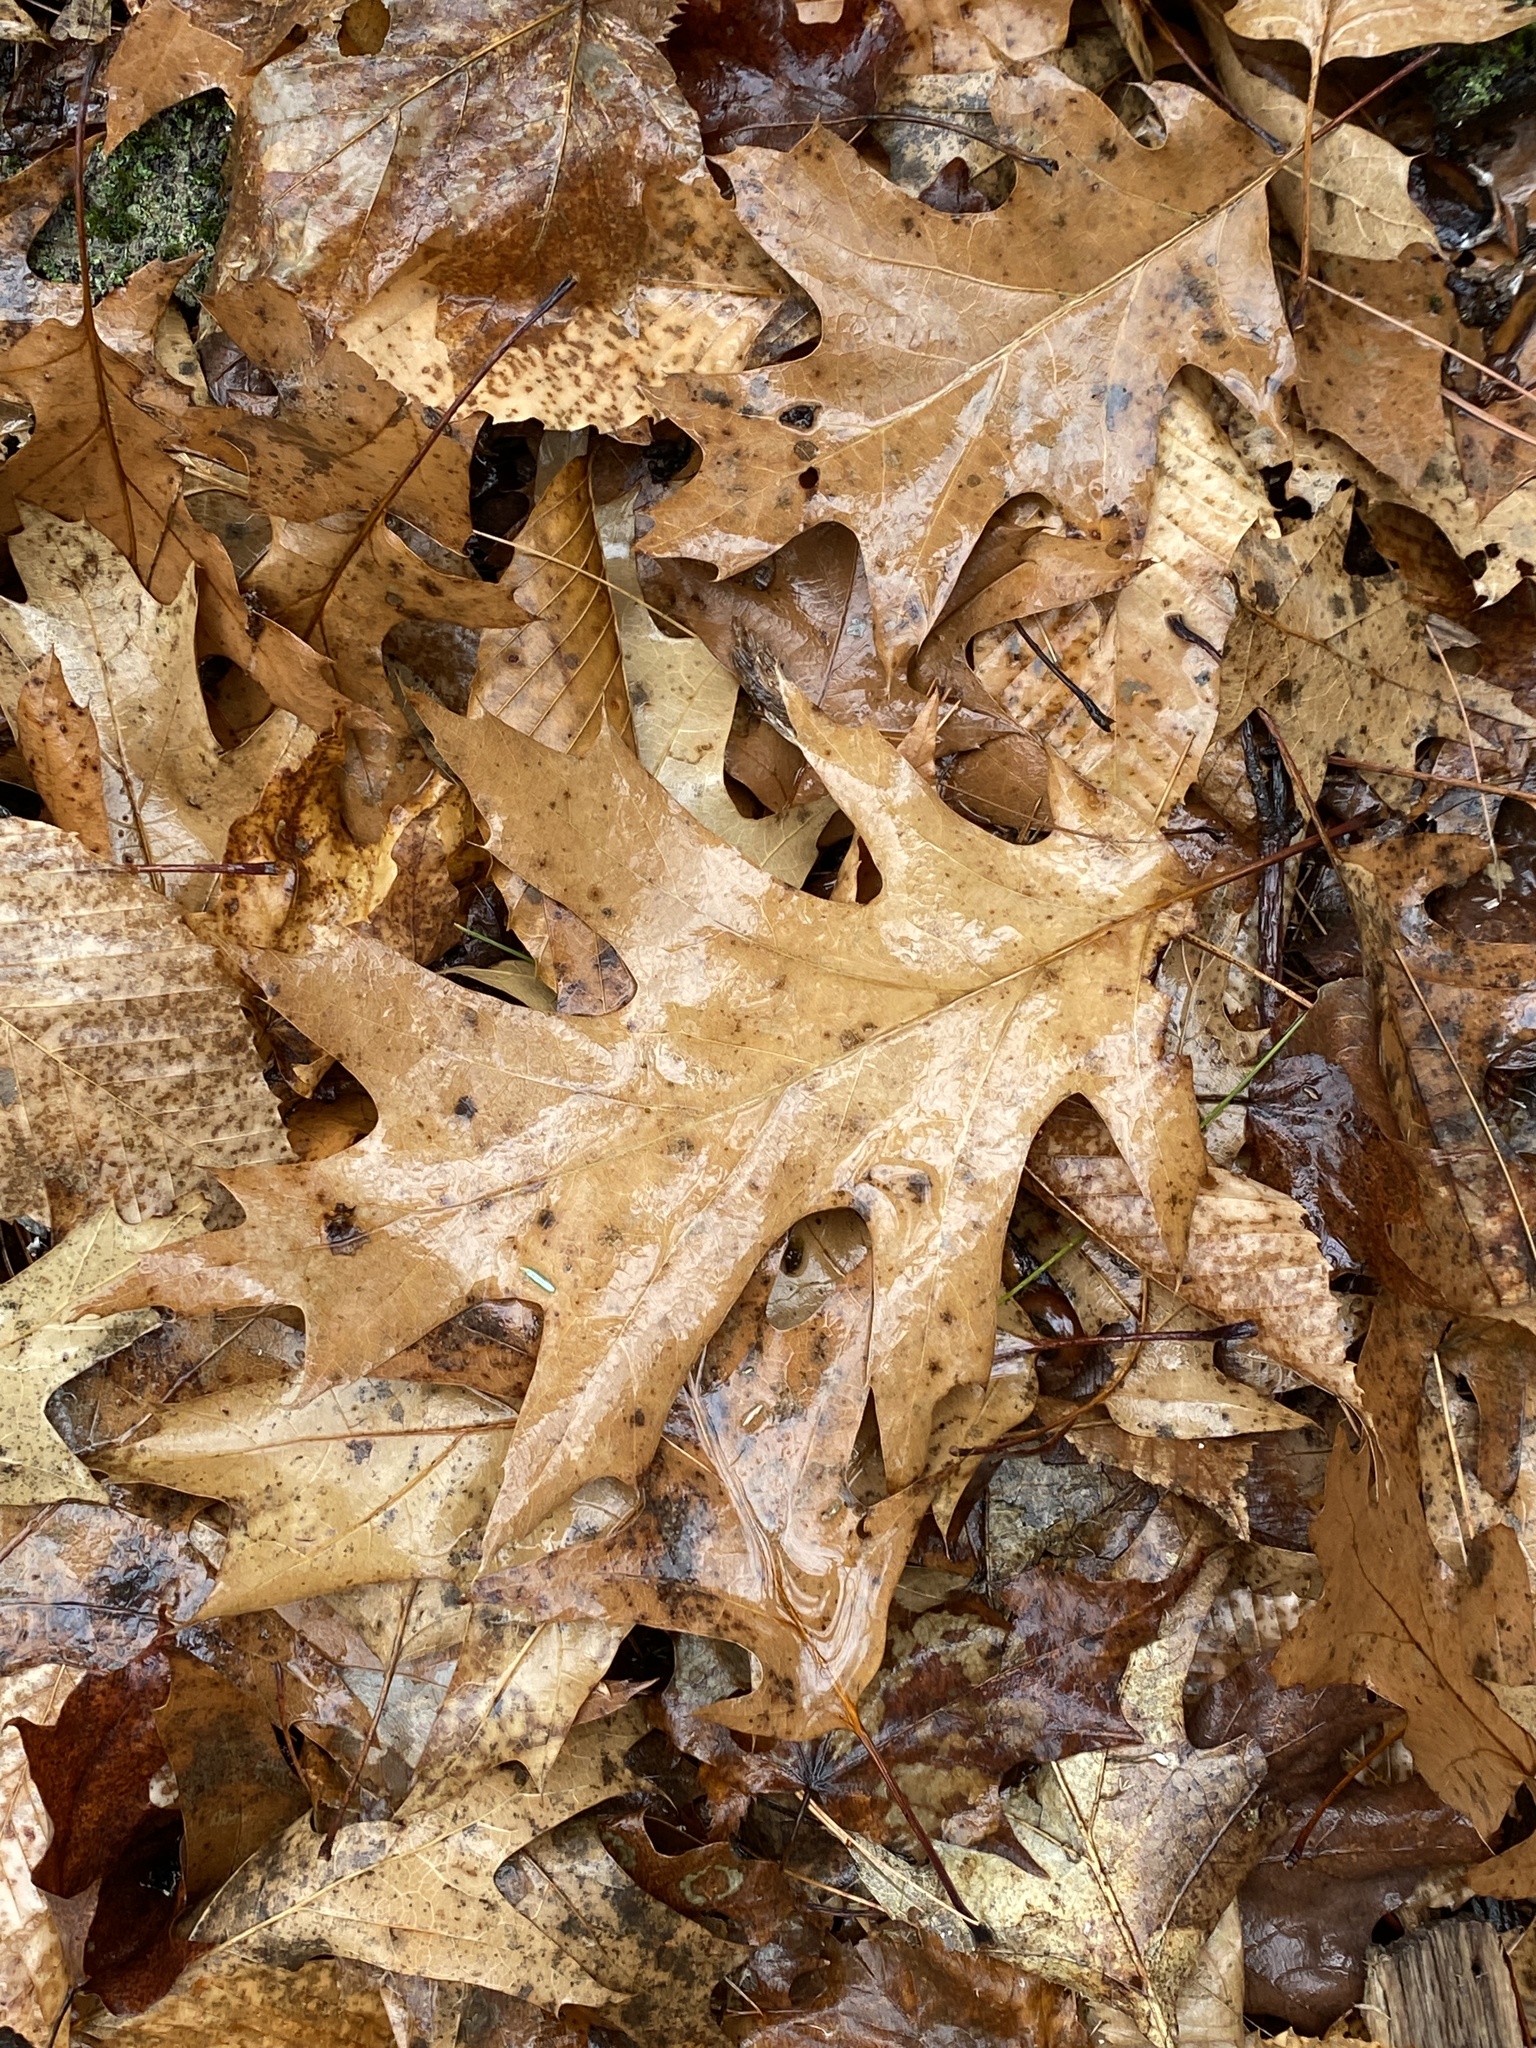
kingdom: Plantae
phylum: Tracheophyta
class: Magnoliopsida
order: Fagales
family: Fagaceae
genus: Quercus
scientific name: Quercus rubra
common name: Red oak
